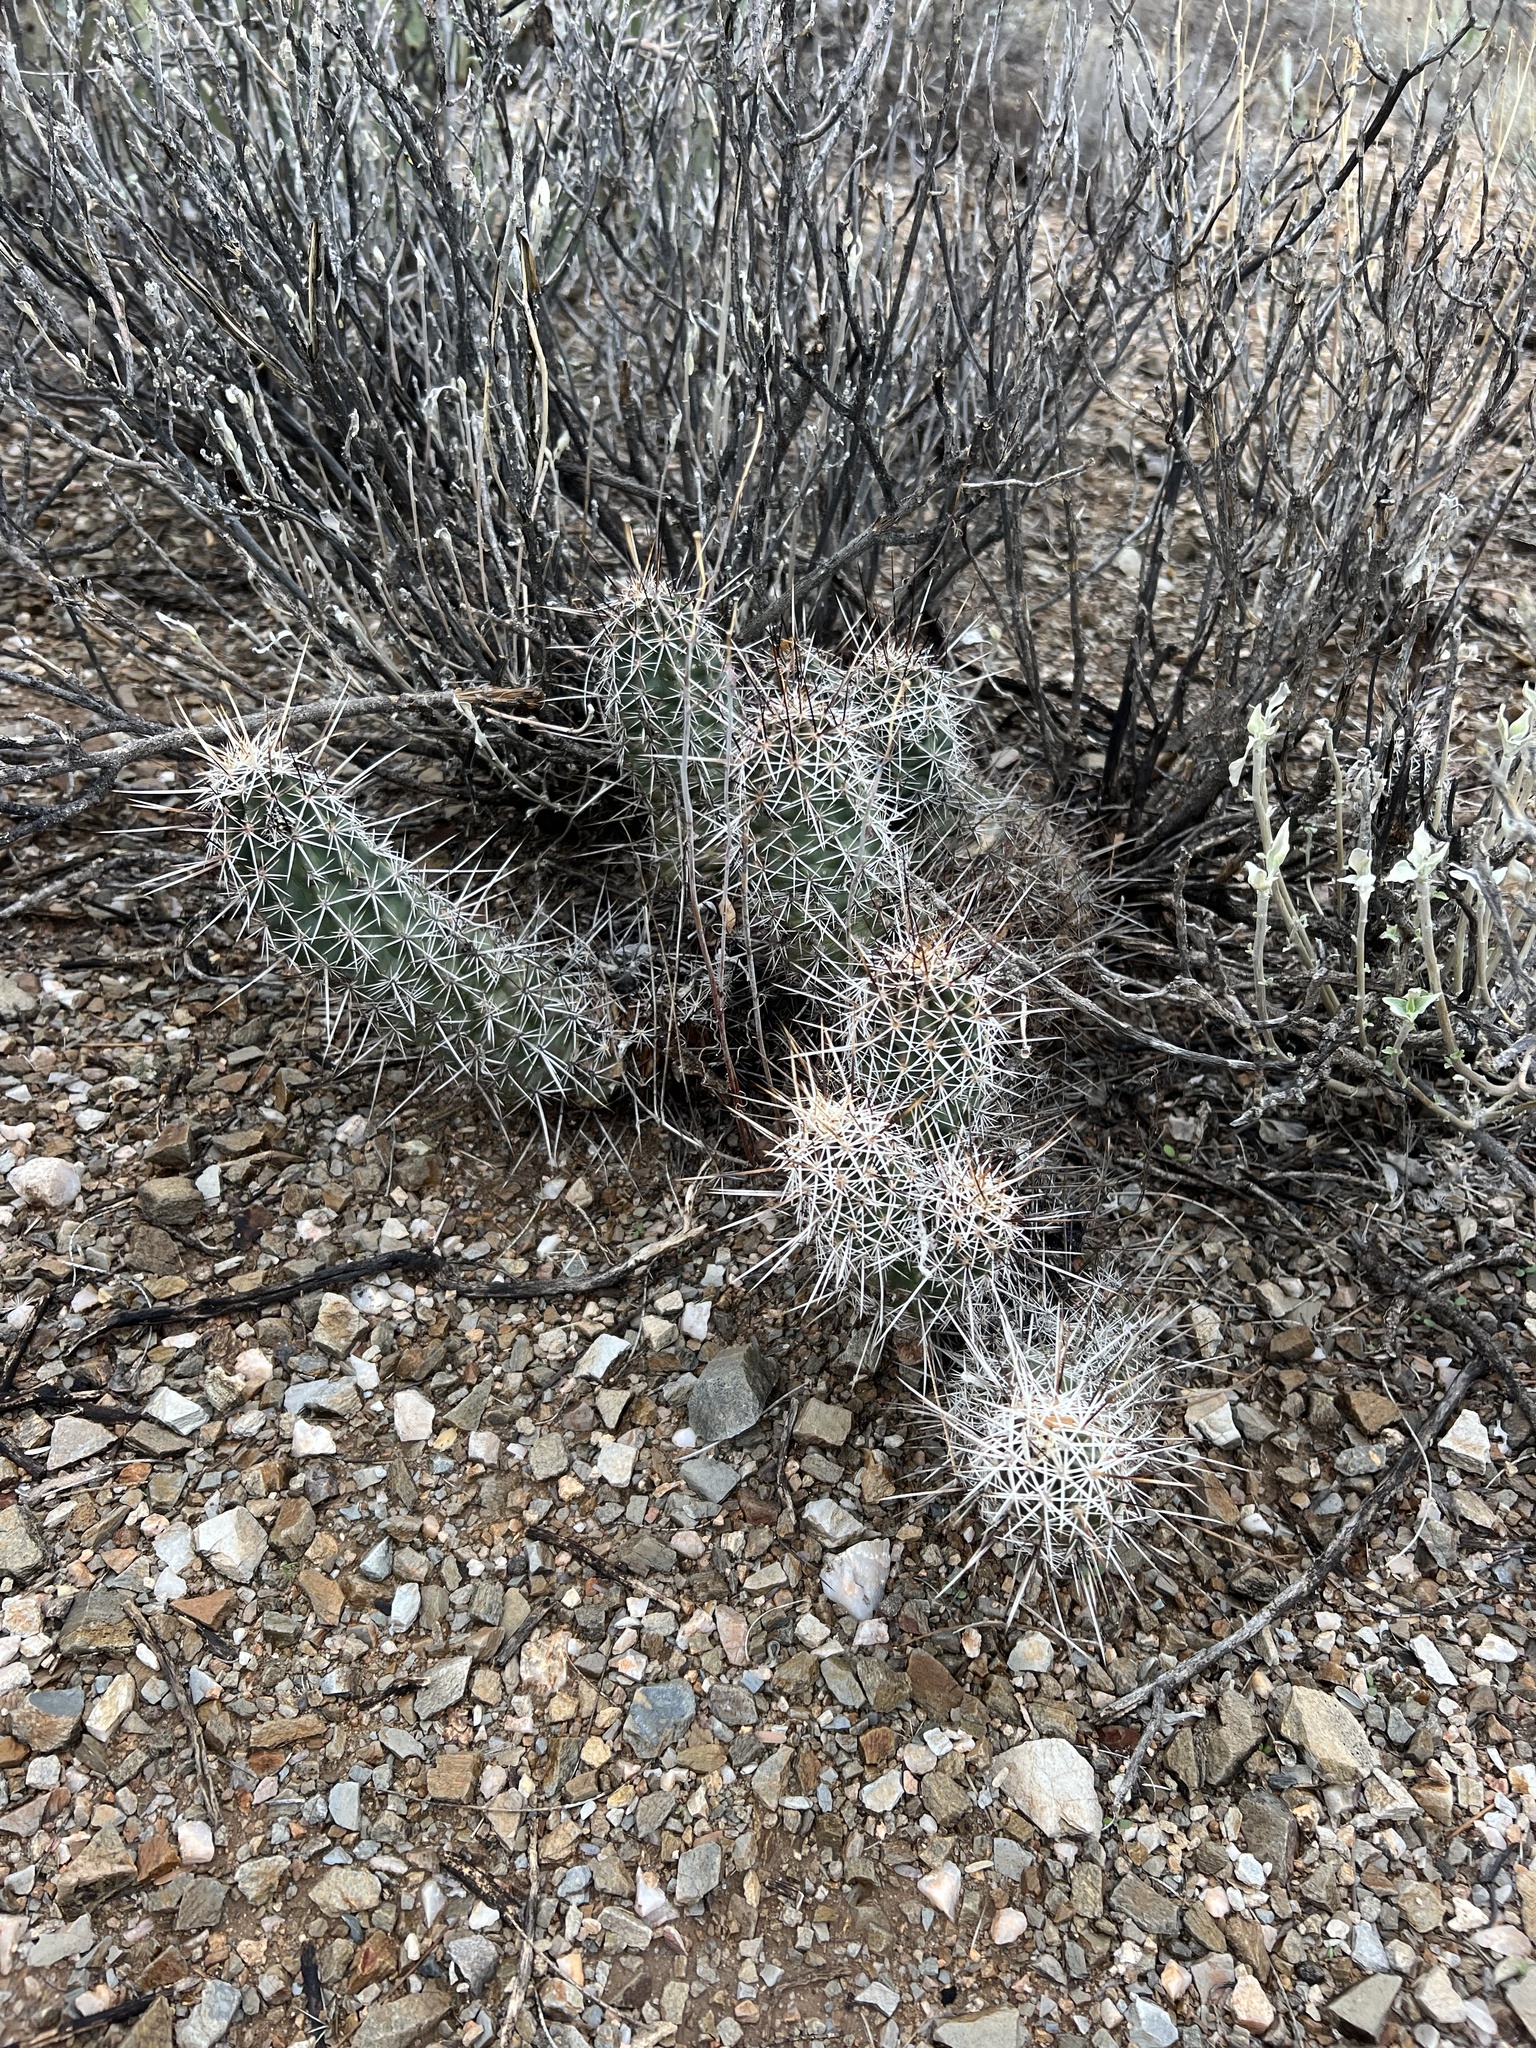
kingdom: Plantae
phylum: Tracheophyta
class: Magnoliopsida
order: Caryophyllales
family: Cactaceae
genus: Echinocereus
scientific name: Echinocereus fasciculatus
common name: Bundle hedgehog
